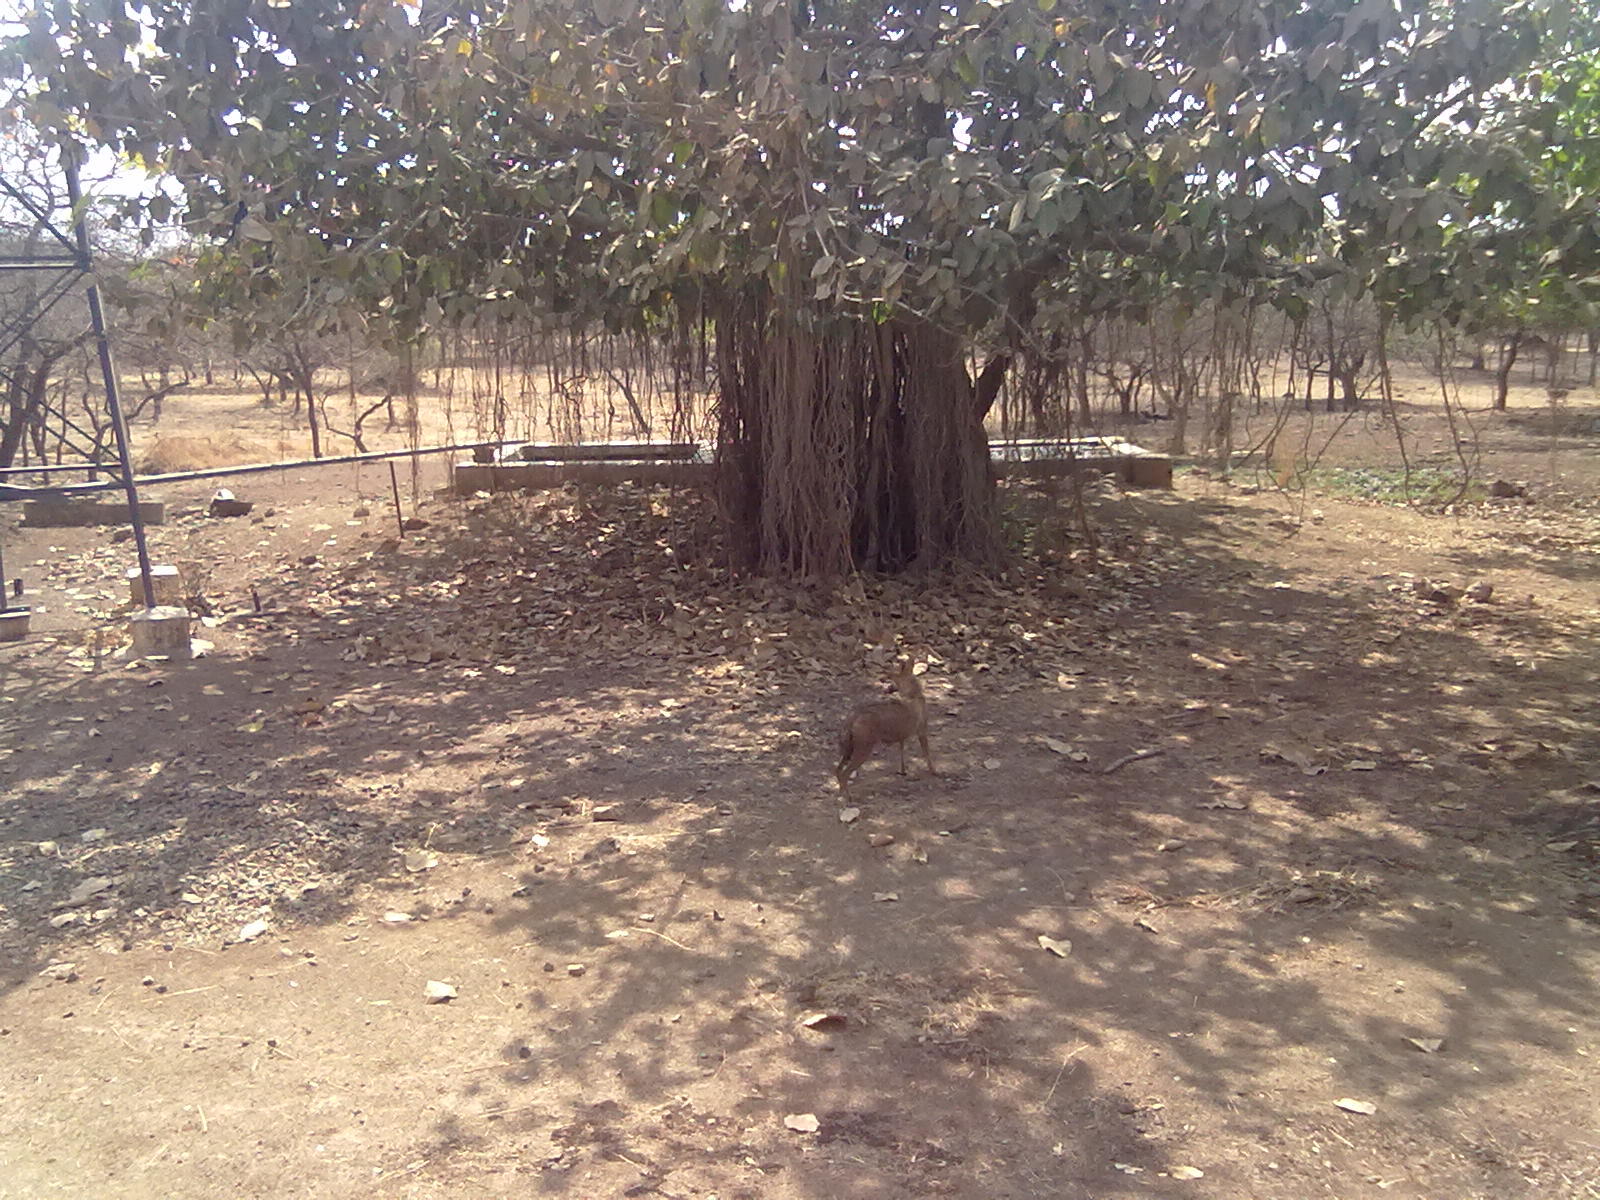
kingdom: Animalia
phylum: Chordata
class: Mammalia
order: Carnivora
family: Canidae
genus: Canis
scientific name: Canis aureus
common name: Golden jackal
